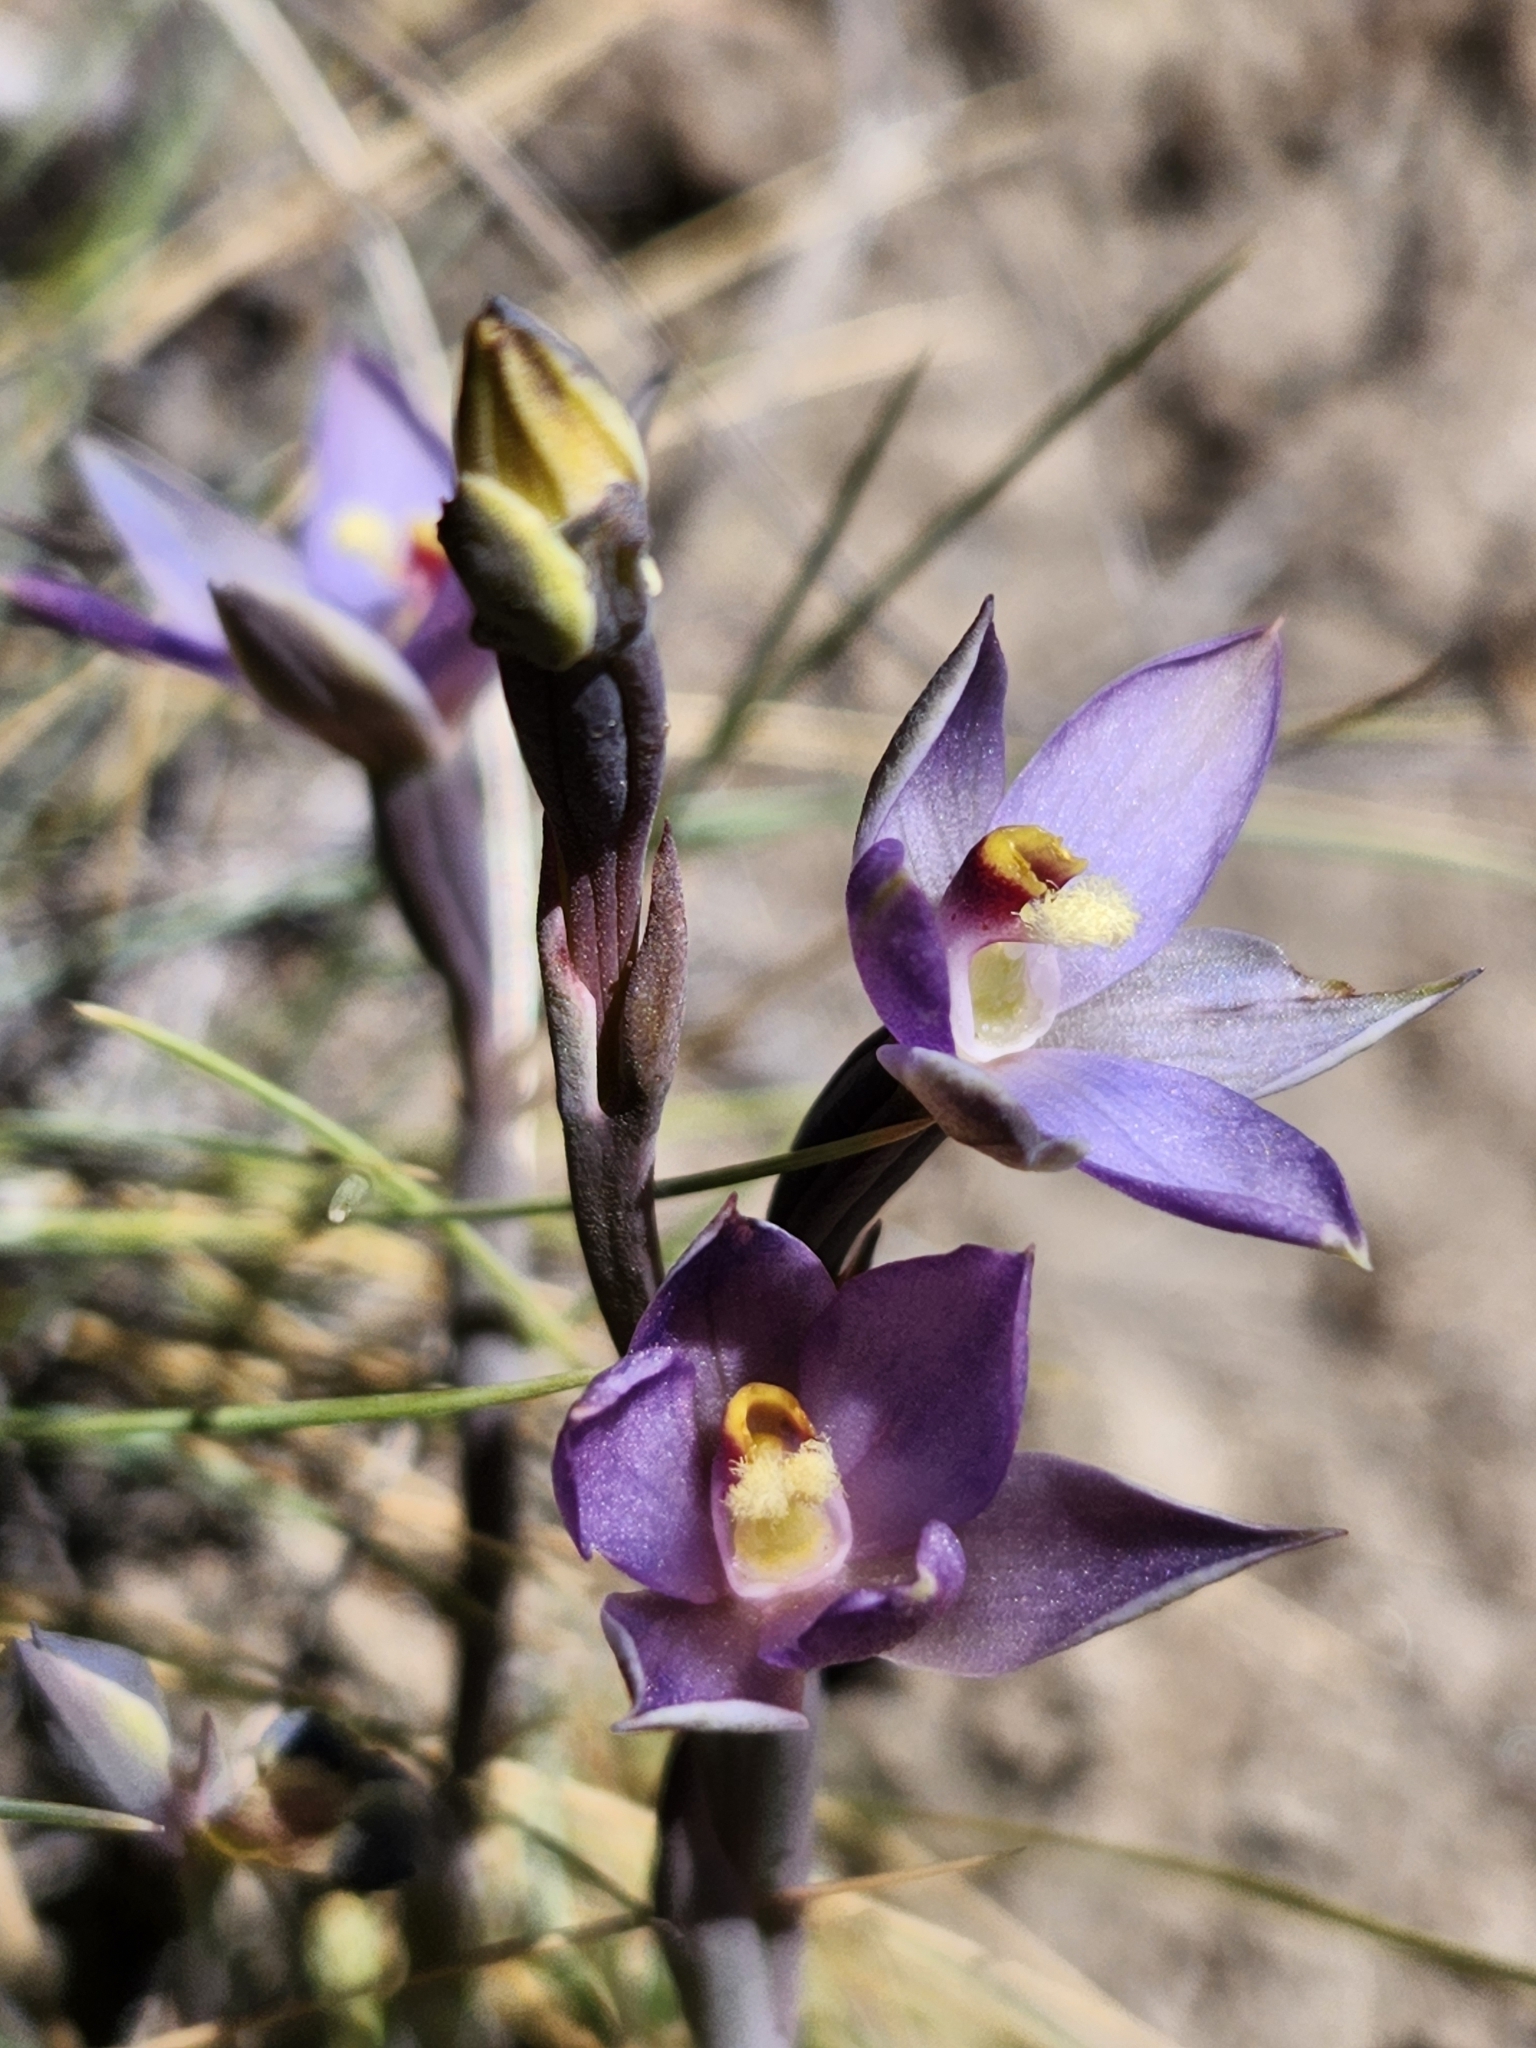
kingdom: Plantae
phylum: Tracheophyta
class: Liliopsida
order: Asparagales
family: Orchidaceae
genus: Thelymitra
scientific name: Thelymitra hatchii
